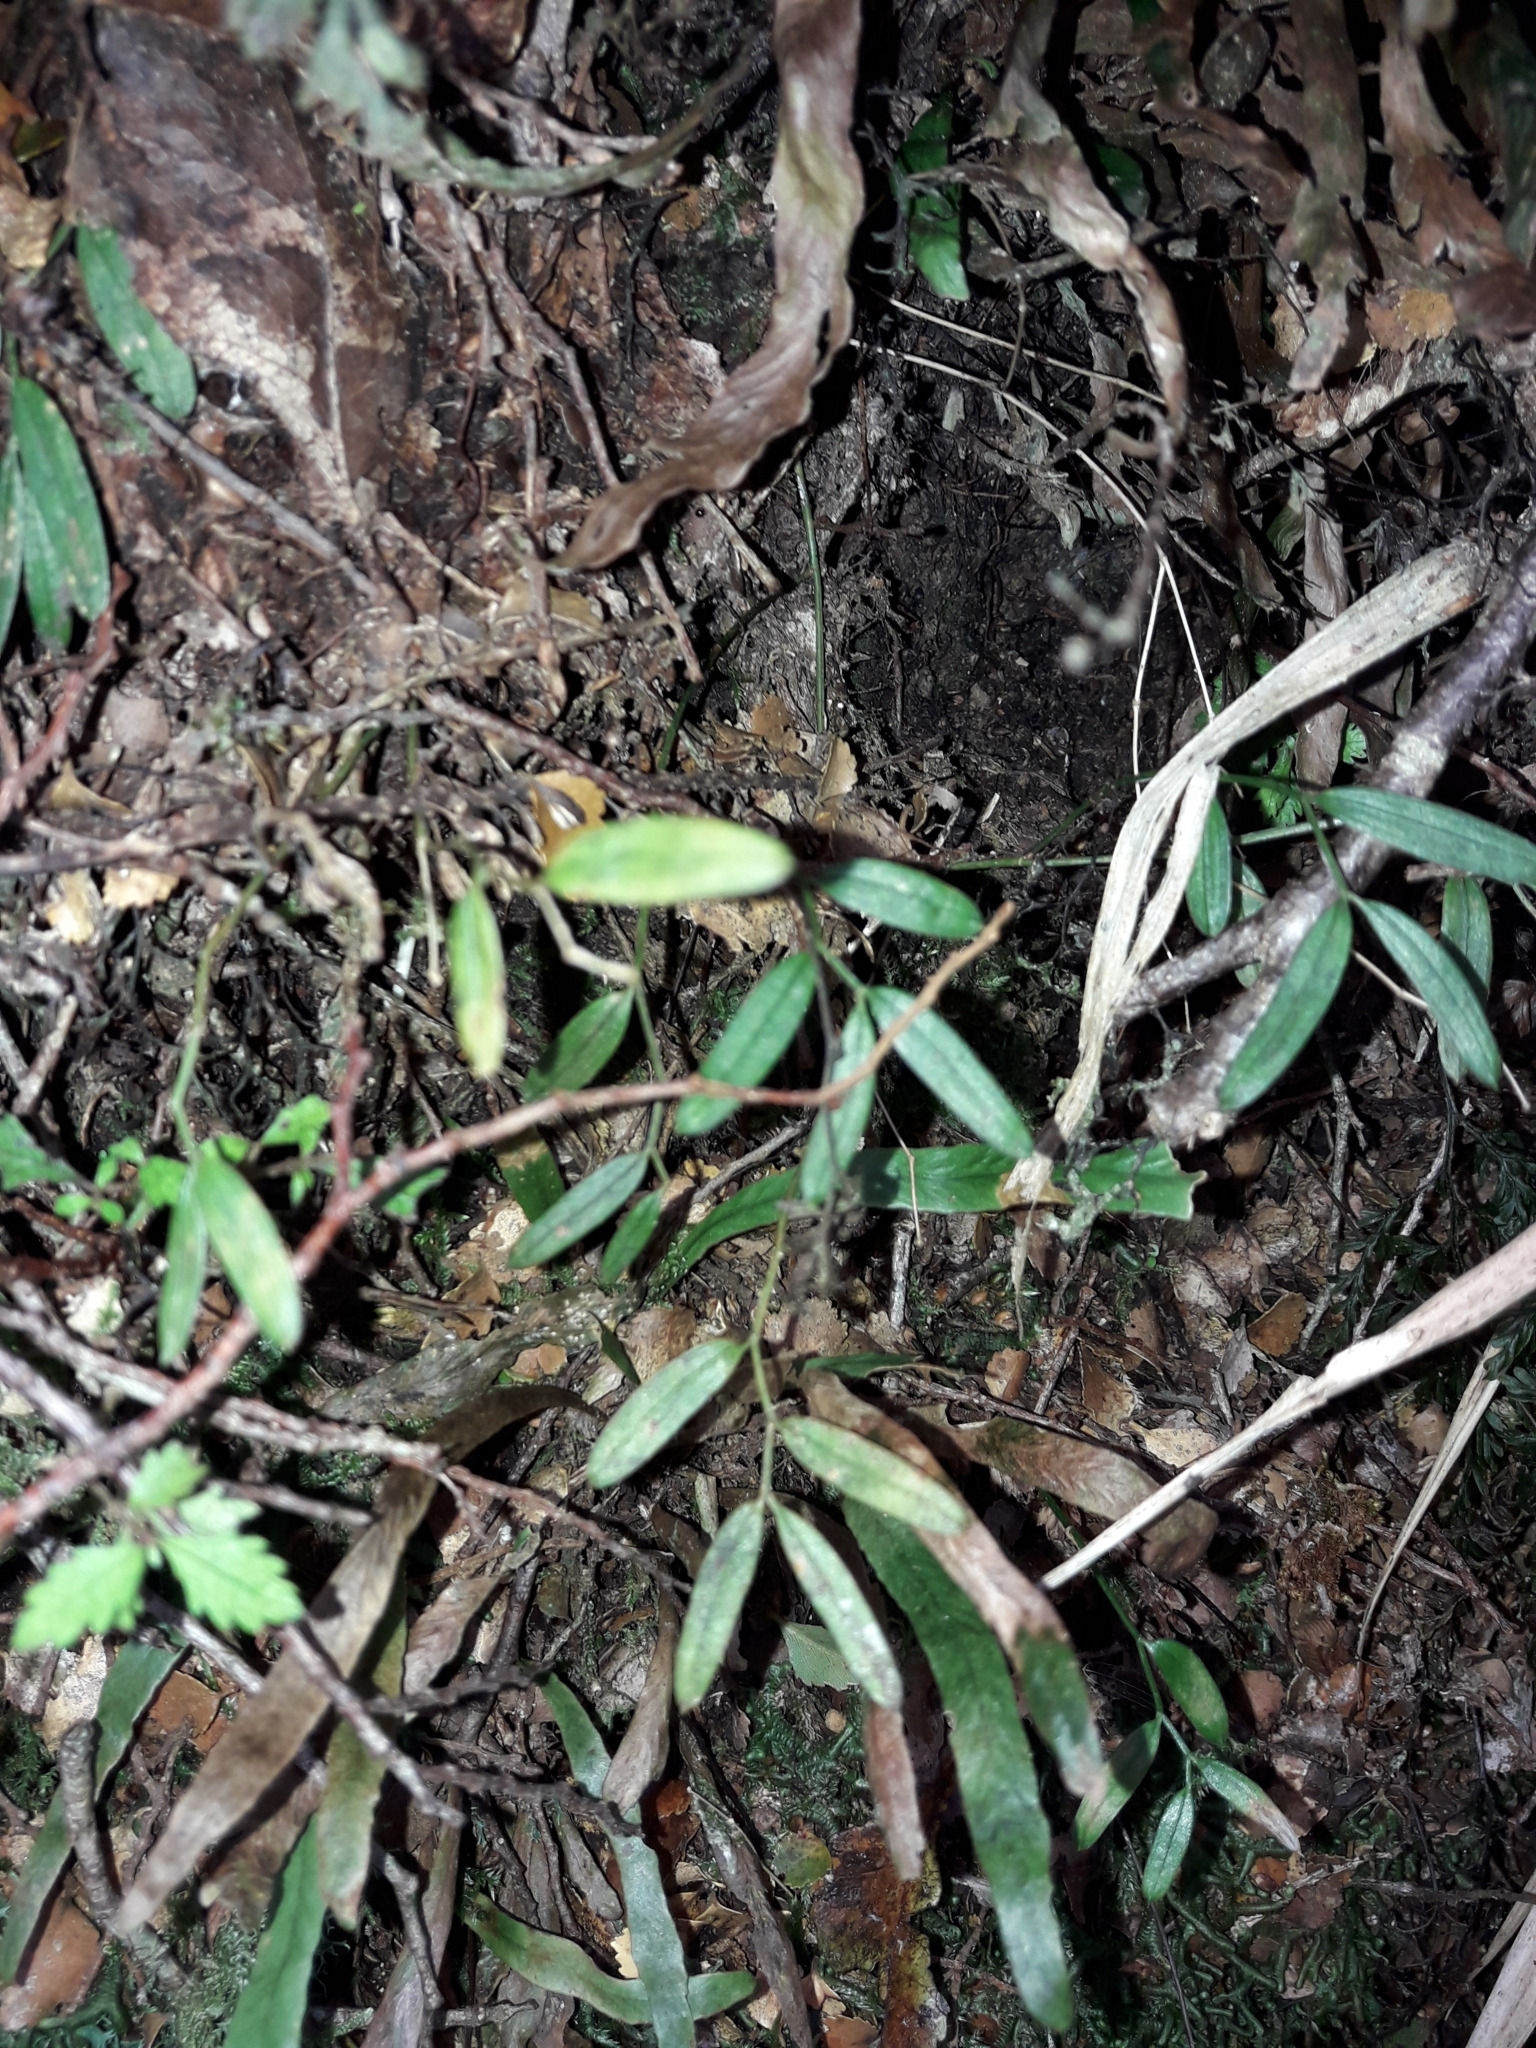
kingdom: Plantae
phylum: Tracheophyta
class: Liliopsida
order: Liliales
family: Alstroemeriaceae
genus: Luzuriaga
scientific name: Luzuriaga parviflora
